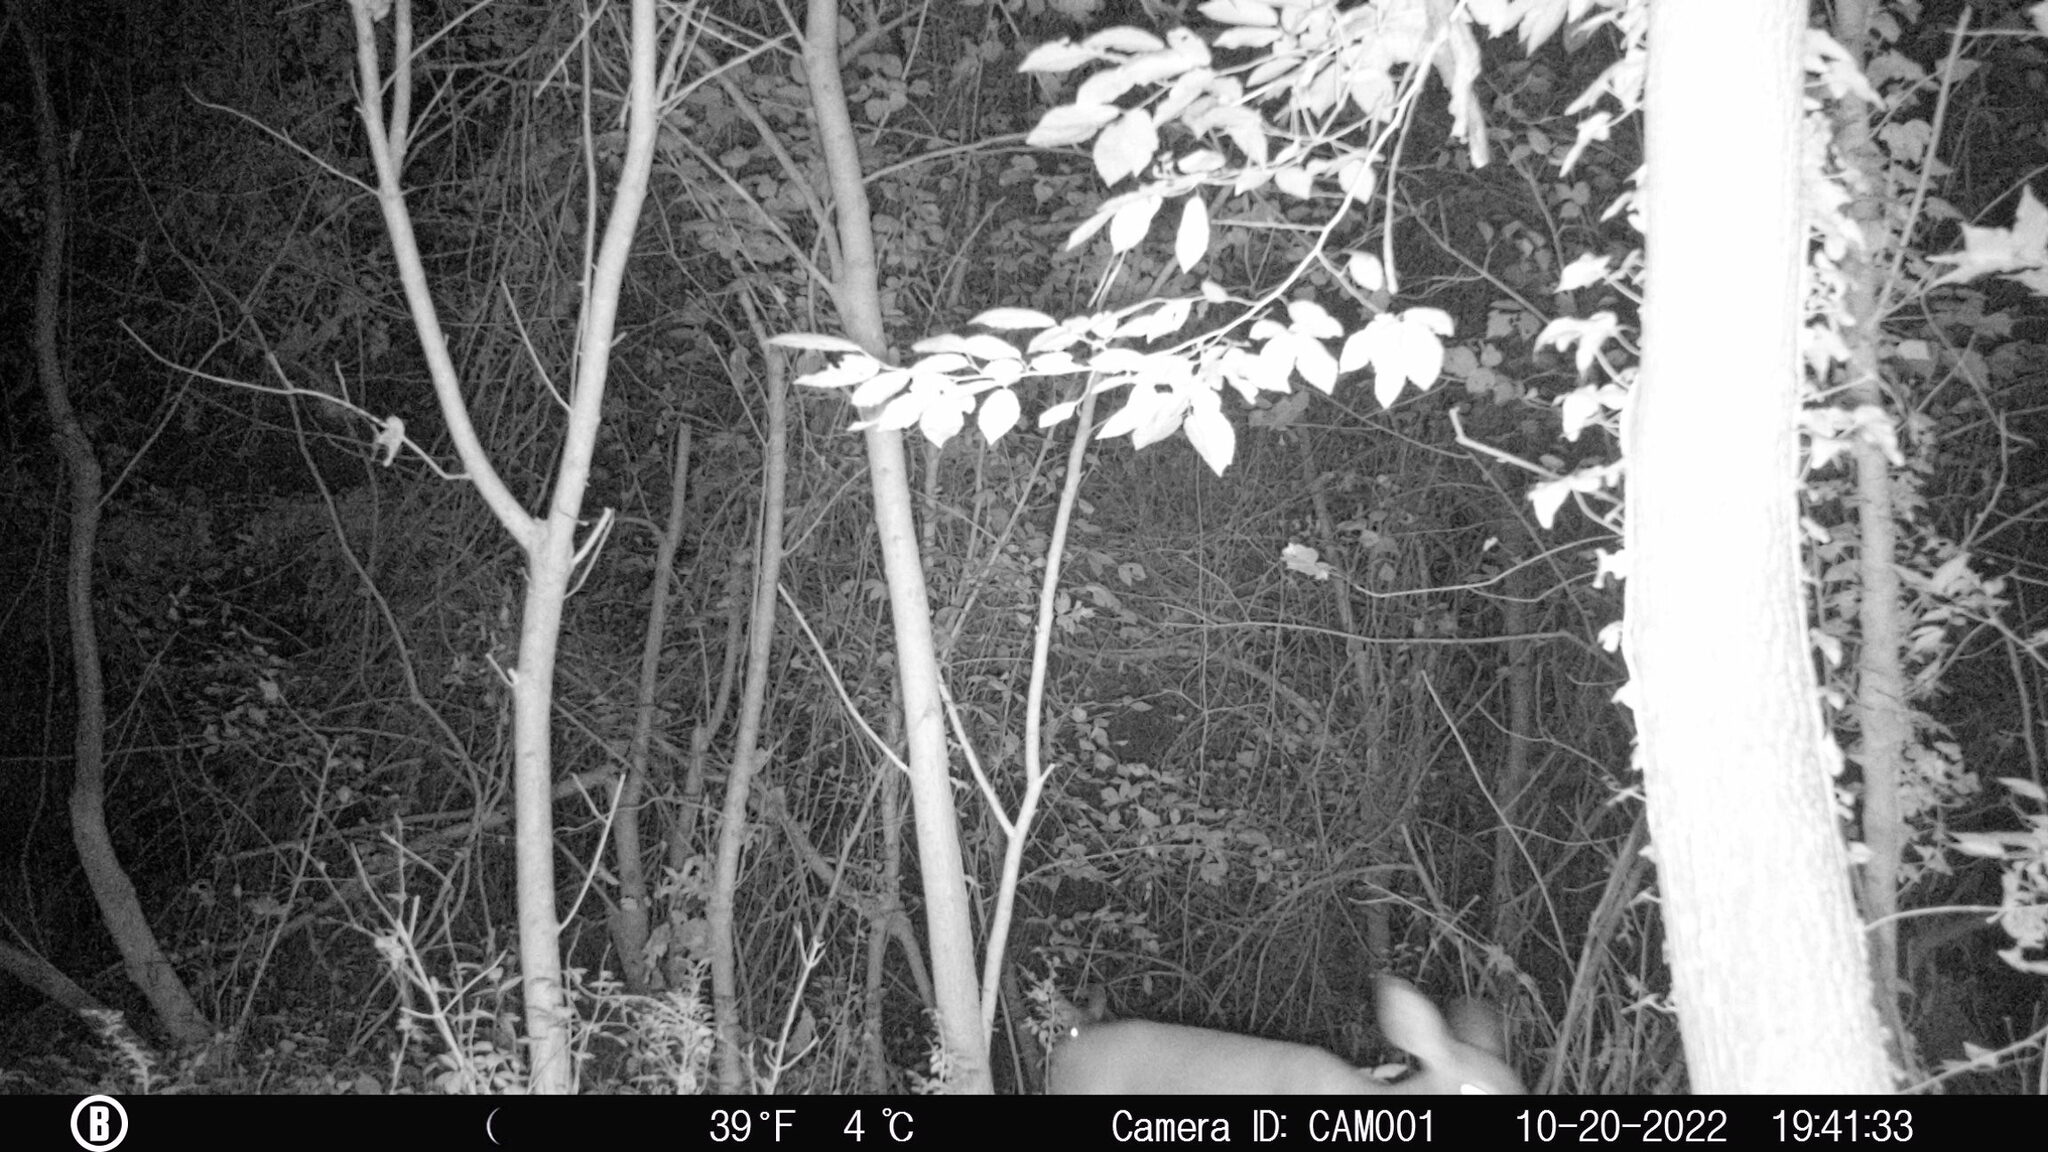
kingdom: Animalia
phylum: Chordata
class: Mammalia
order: Artiodactyla
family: Cervidae
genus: Odocoileus
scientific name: Odocoileus virginianus
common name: White-tailed deer
